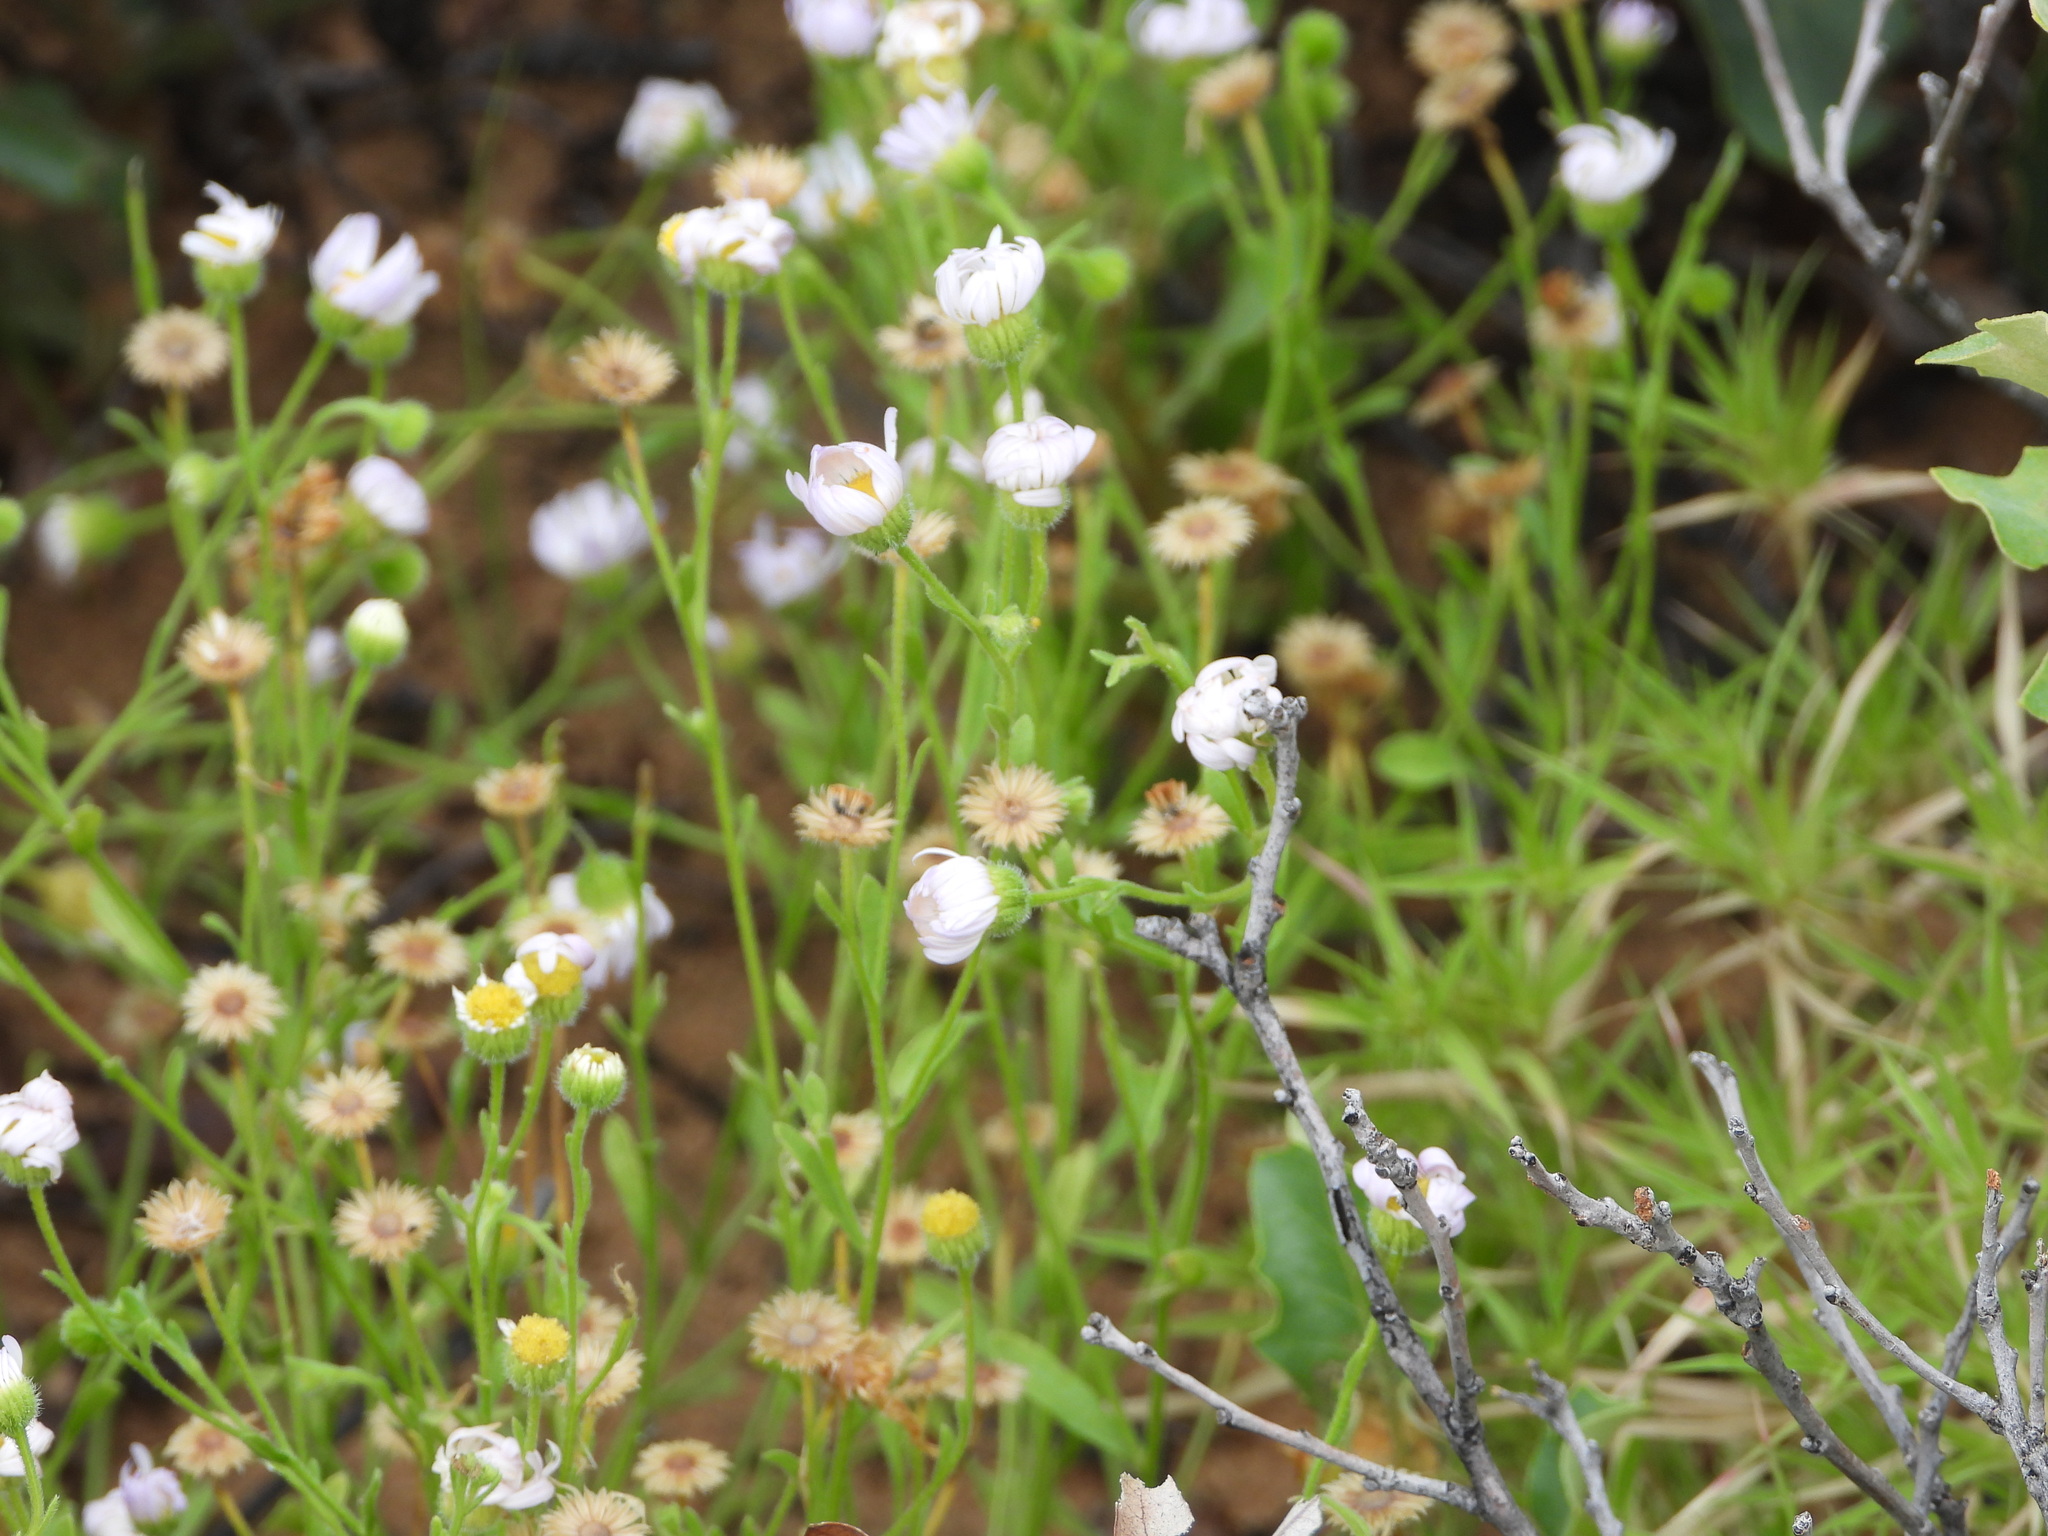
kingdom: Plantae
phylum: Tracheophyta
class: Magnoliopsida
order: Asterales
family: Asteraceae
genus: Erigeron
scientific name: Erigeron bellidiastrum
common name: Sand fleabane
